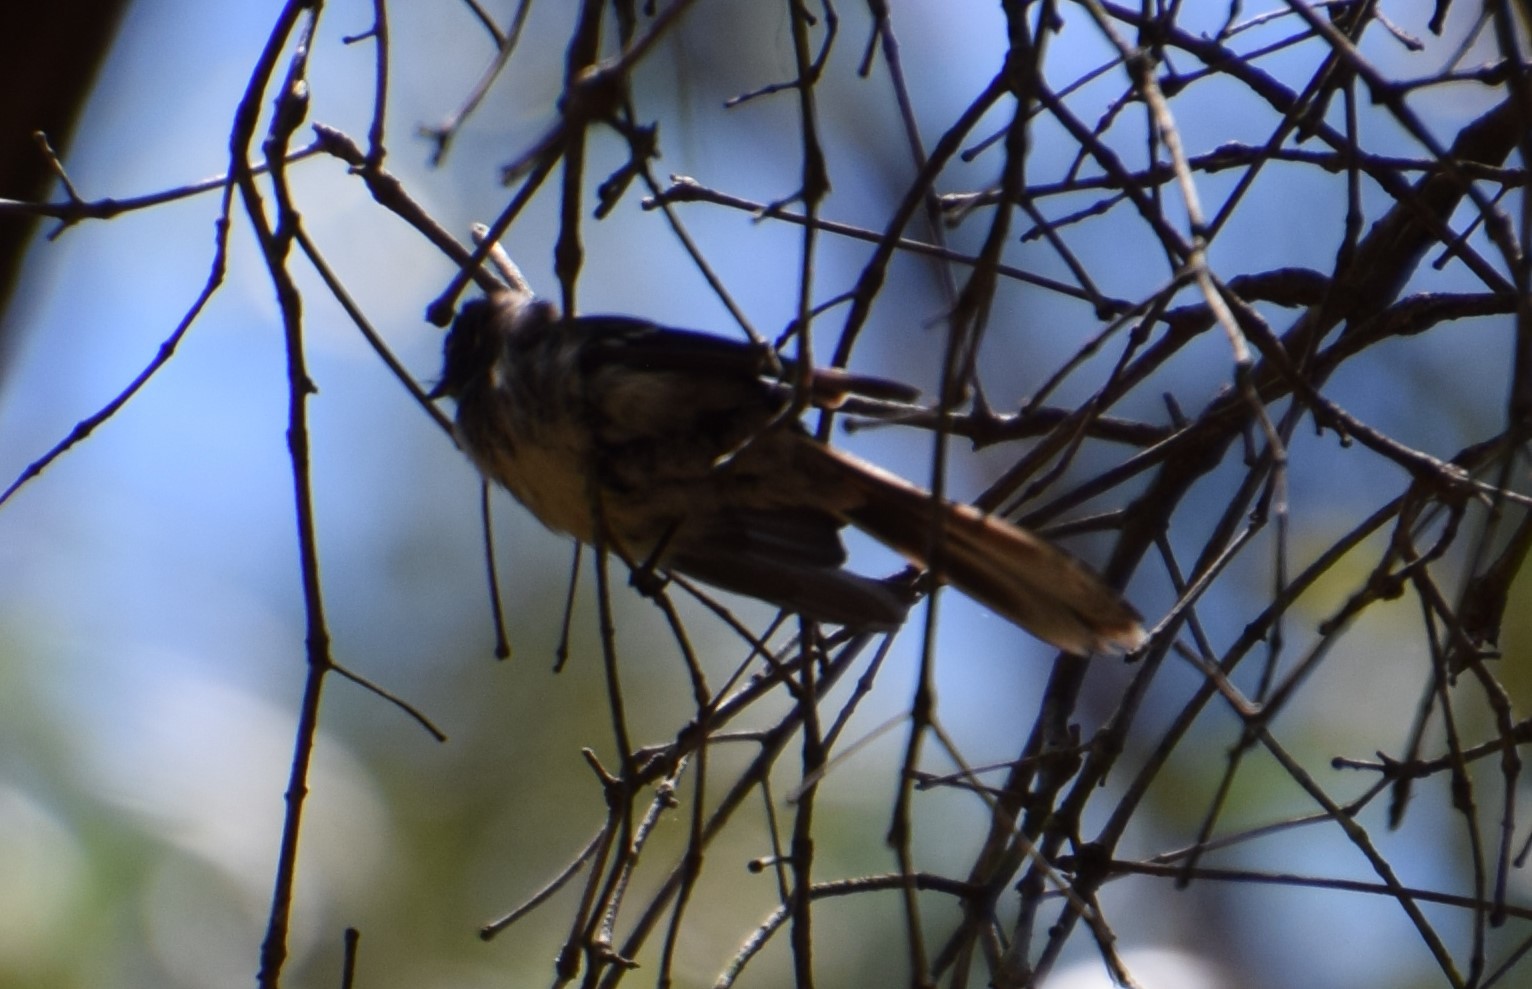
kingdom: Animalia
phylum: Chordata
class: Aves
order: Passeriformes
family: Rhipiduridae
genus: Rhipidura
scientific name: Rhipidura albiscapa
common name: Grey fantail
